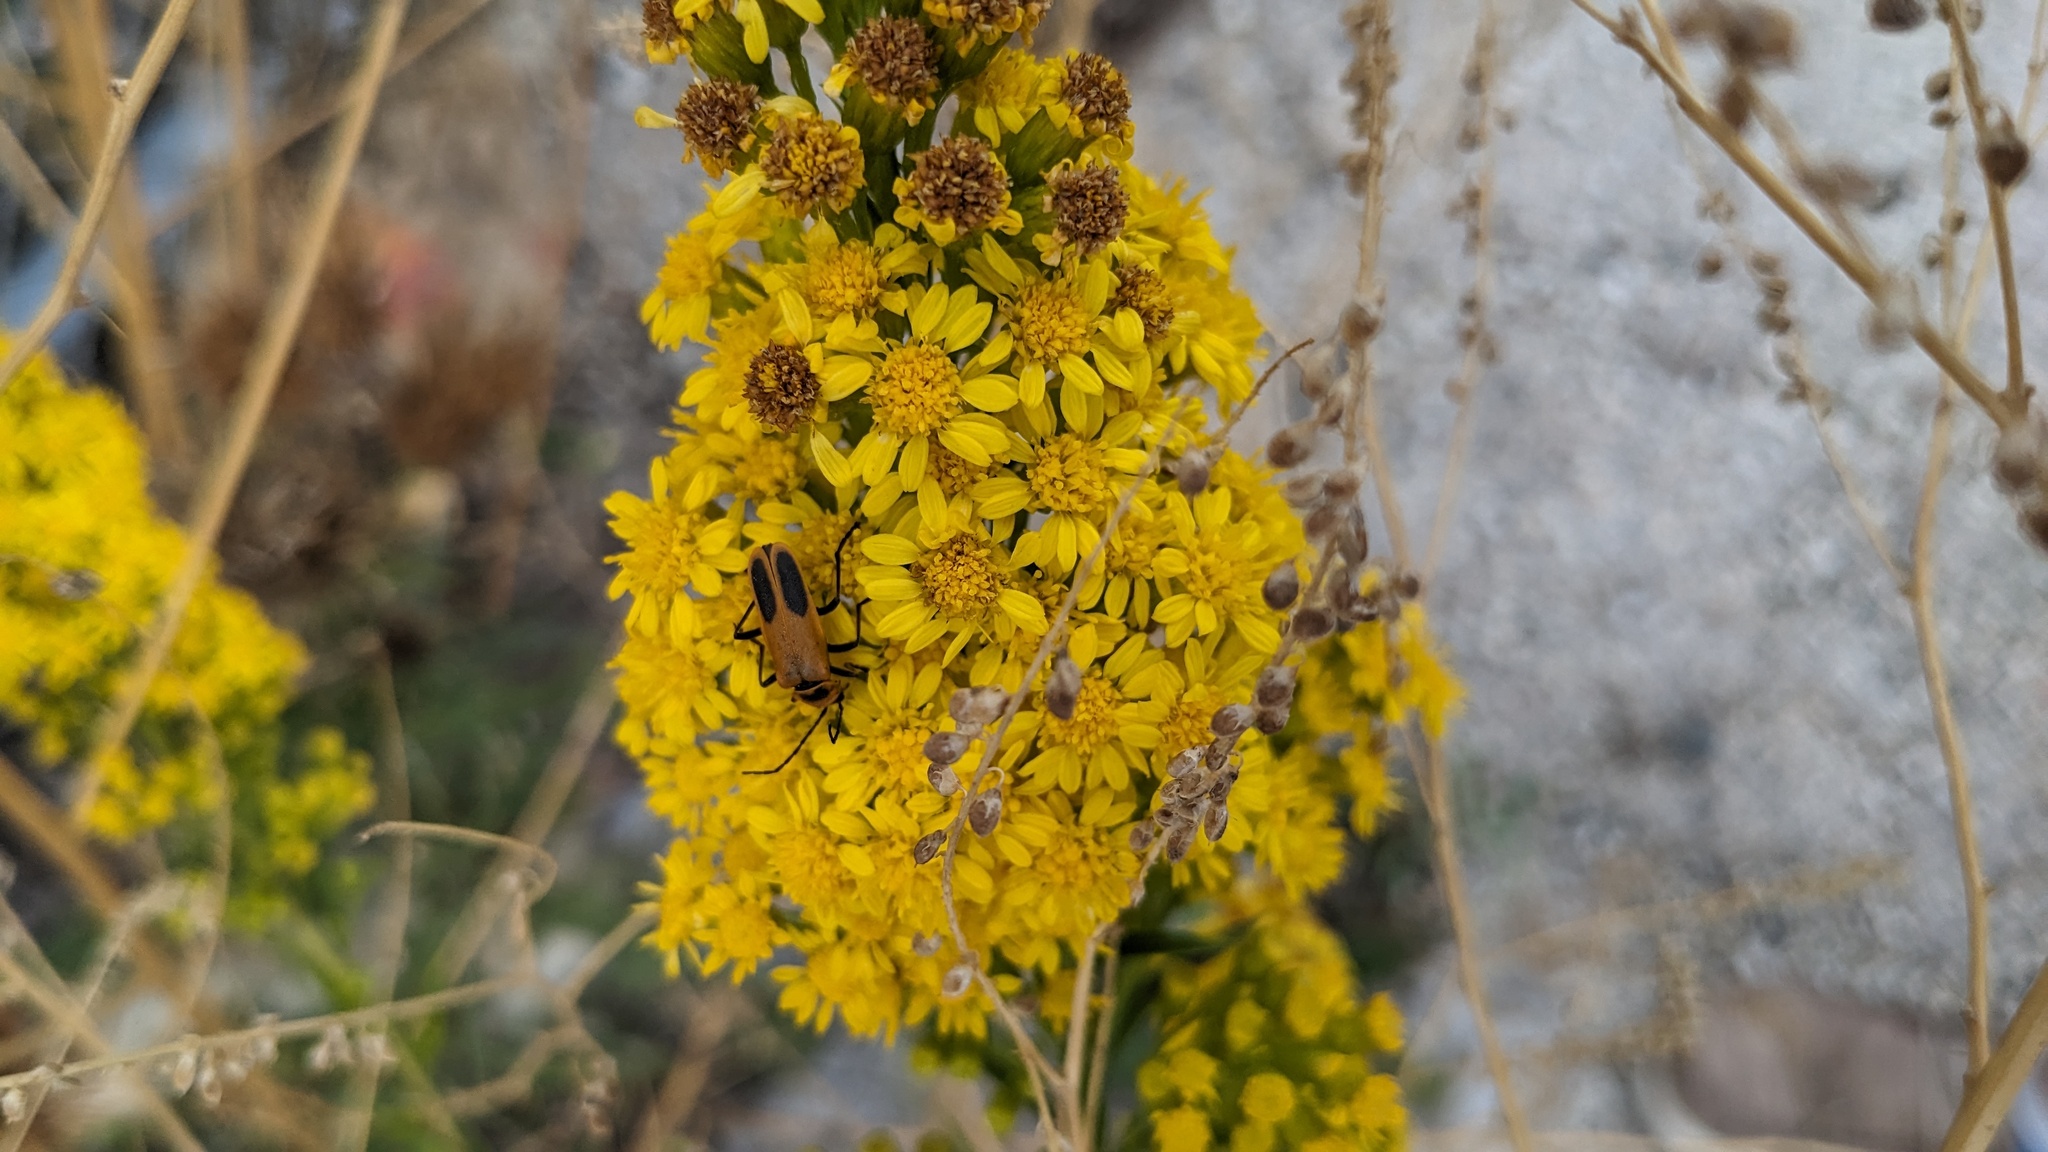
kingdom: Animalia
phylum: Arthropoda
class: Insecta
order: Coleoptera
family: Cantharidae
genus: Chauliognathus
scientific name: Chauliognathus pensylvanicus
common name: Goldenrod soldier beetle
